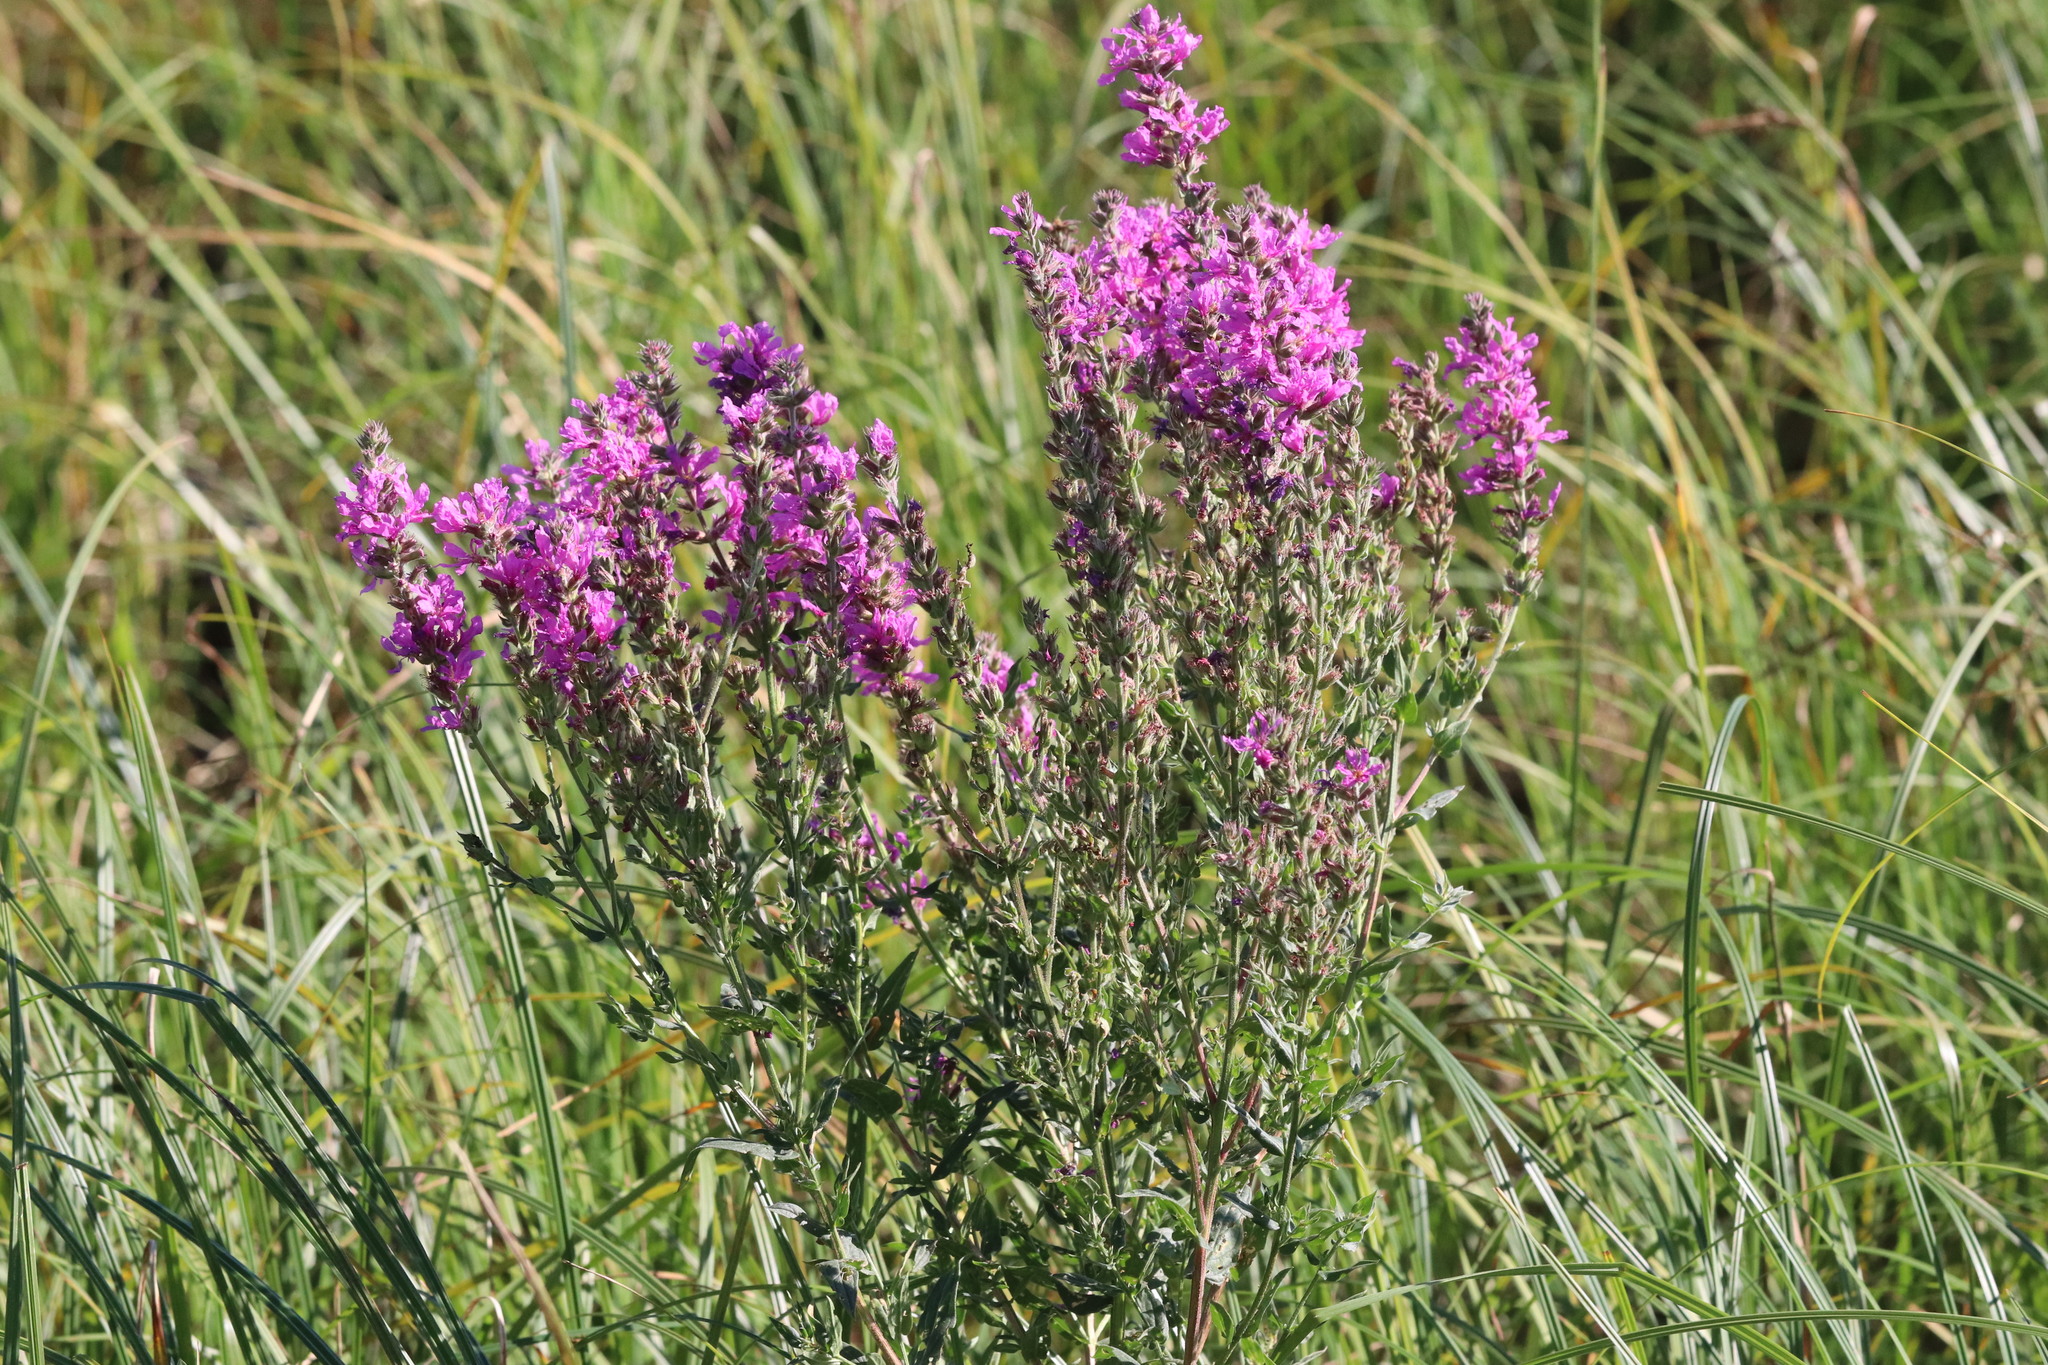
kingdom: Plantae
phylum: Tracheophyta
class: Magnoliopsida
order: Myrtales
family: Lythraceae
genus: Lythrum
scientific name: Lythrum salicaria
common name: Purple loosestrife
